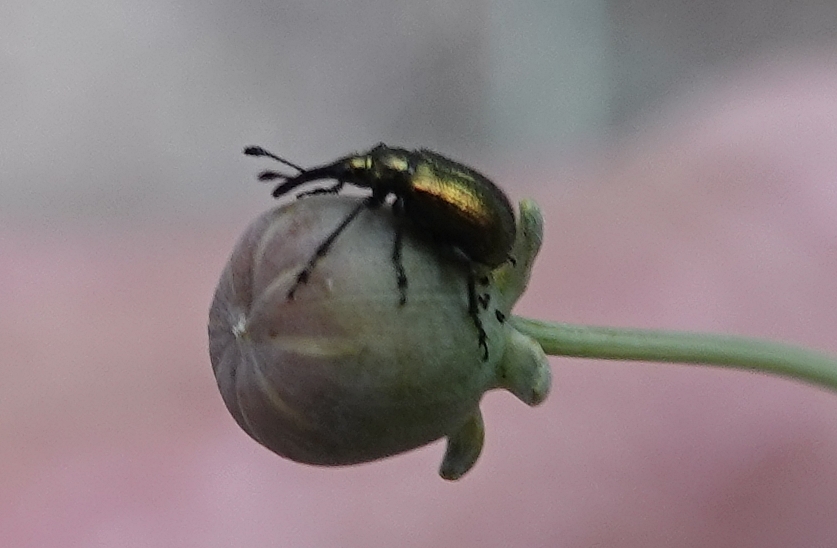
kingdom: Animalia
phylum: Arthropoda
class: Insecta
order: Coleoptera
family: Attelabidae
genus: Haplorhynchites
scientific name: Haplorhynchites eximius
